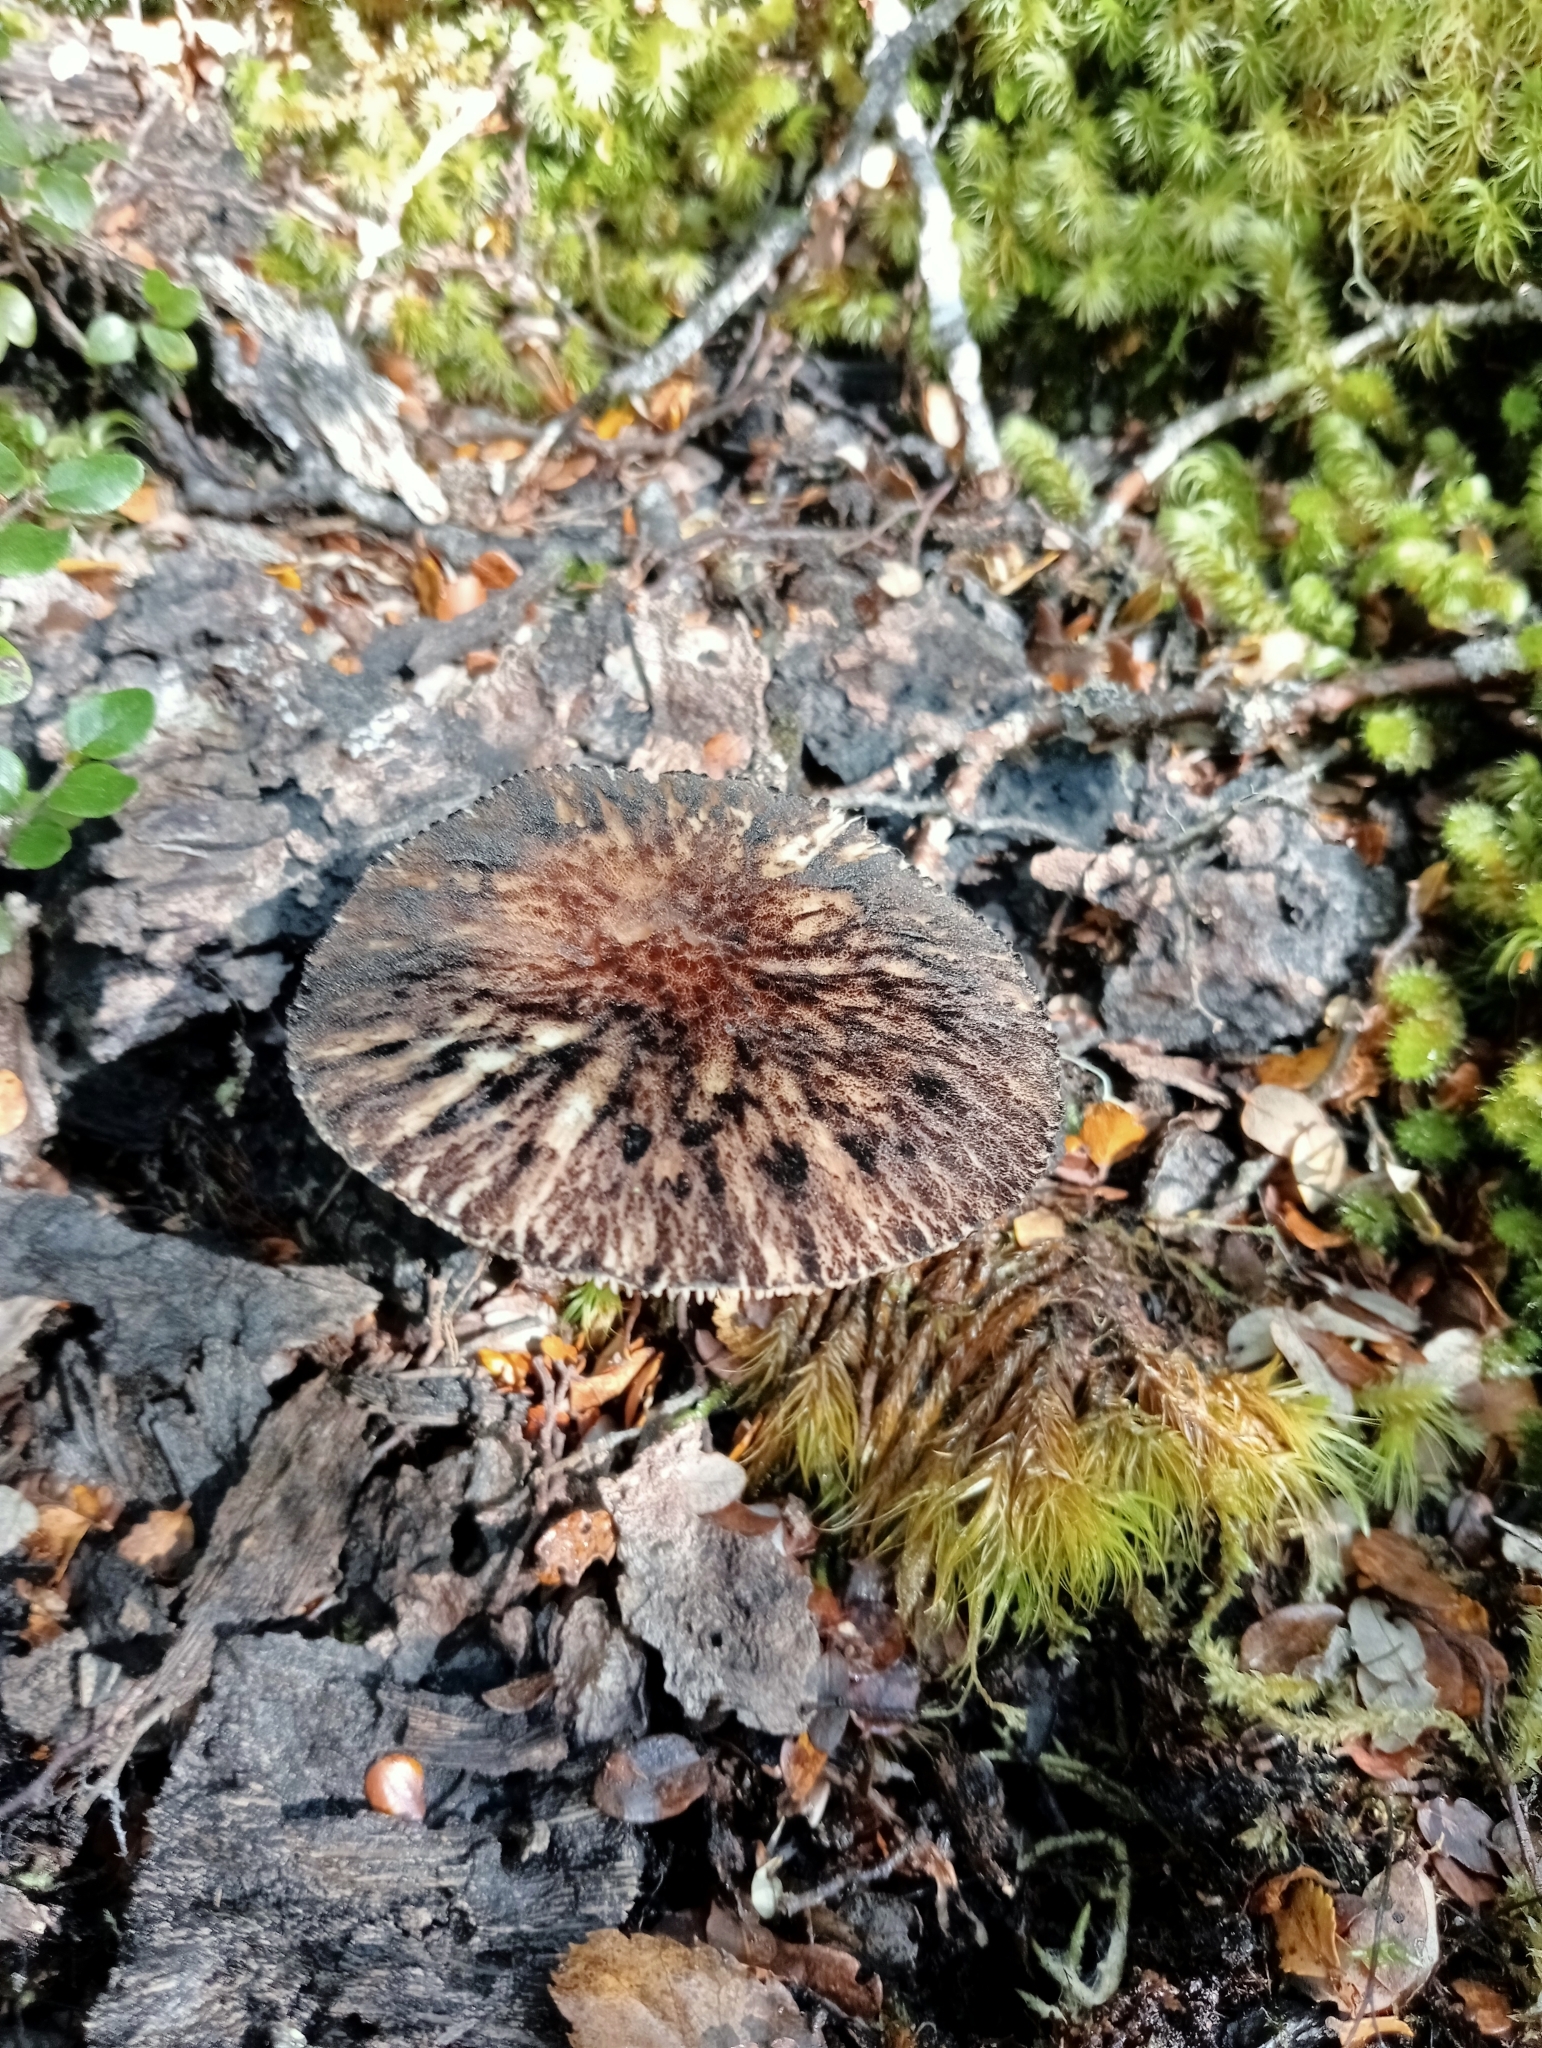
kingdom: Fungi
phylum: Basidiomycota
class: Agaricomycetes
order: Agaricales
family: Pluteaceae
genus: Pluteus
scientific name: Pluteus perroseus
